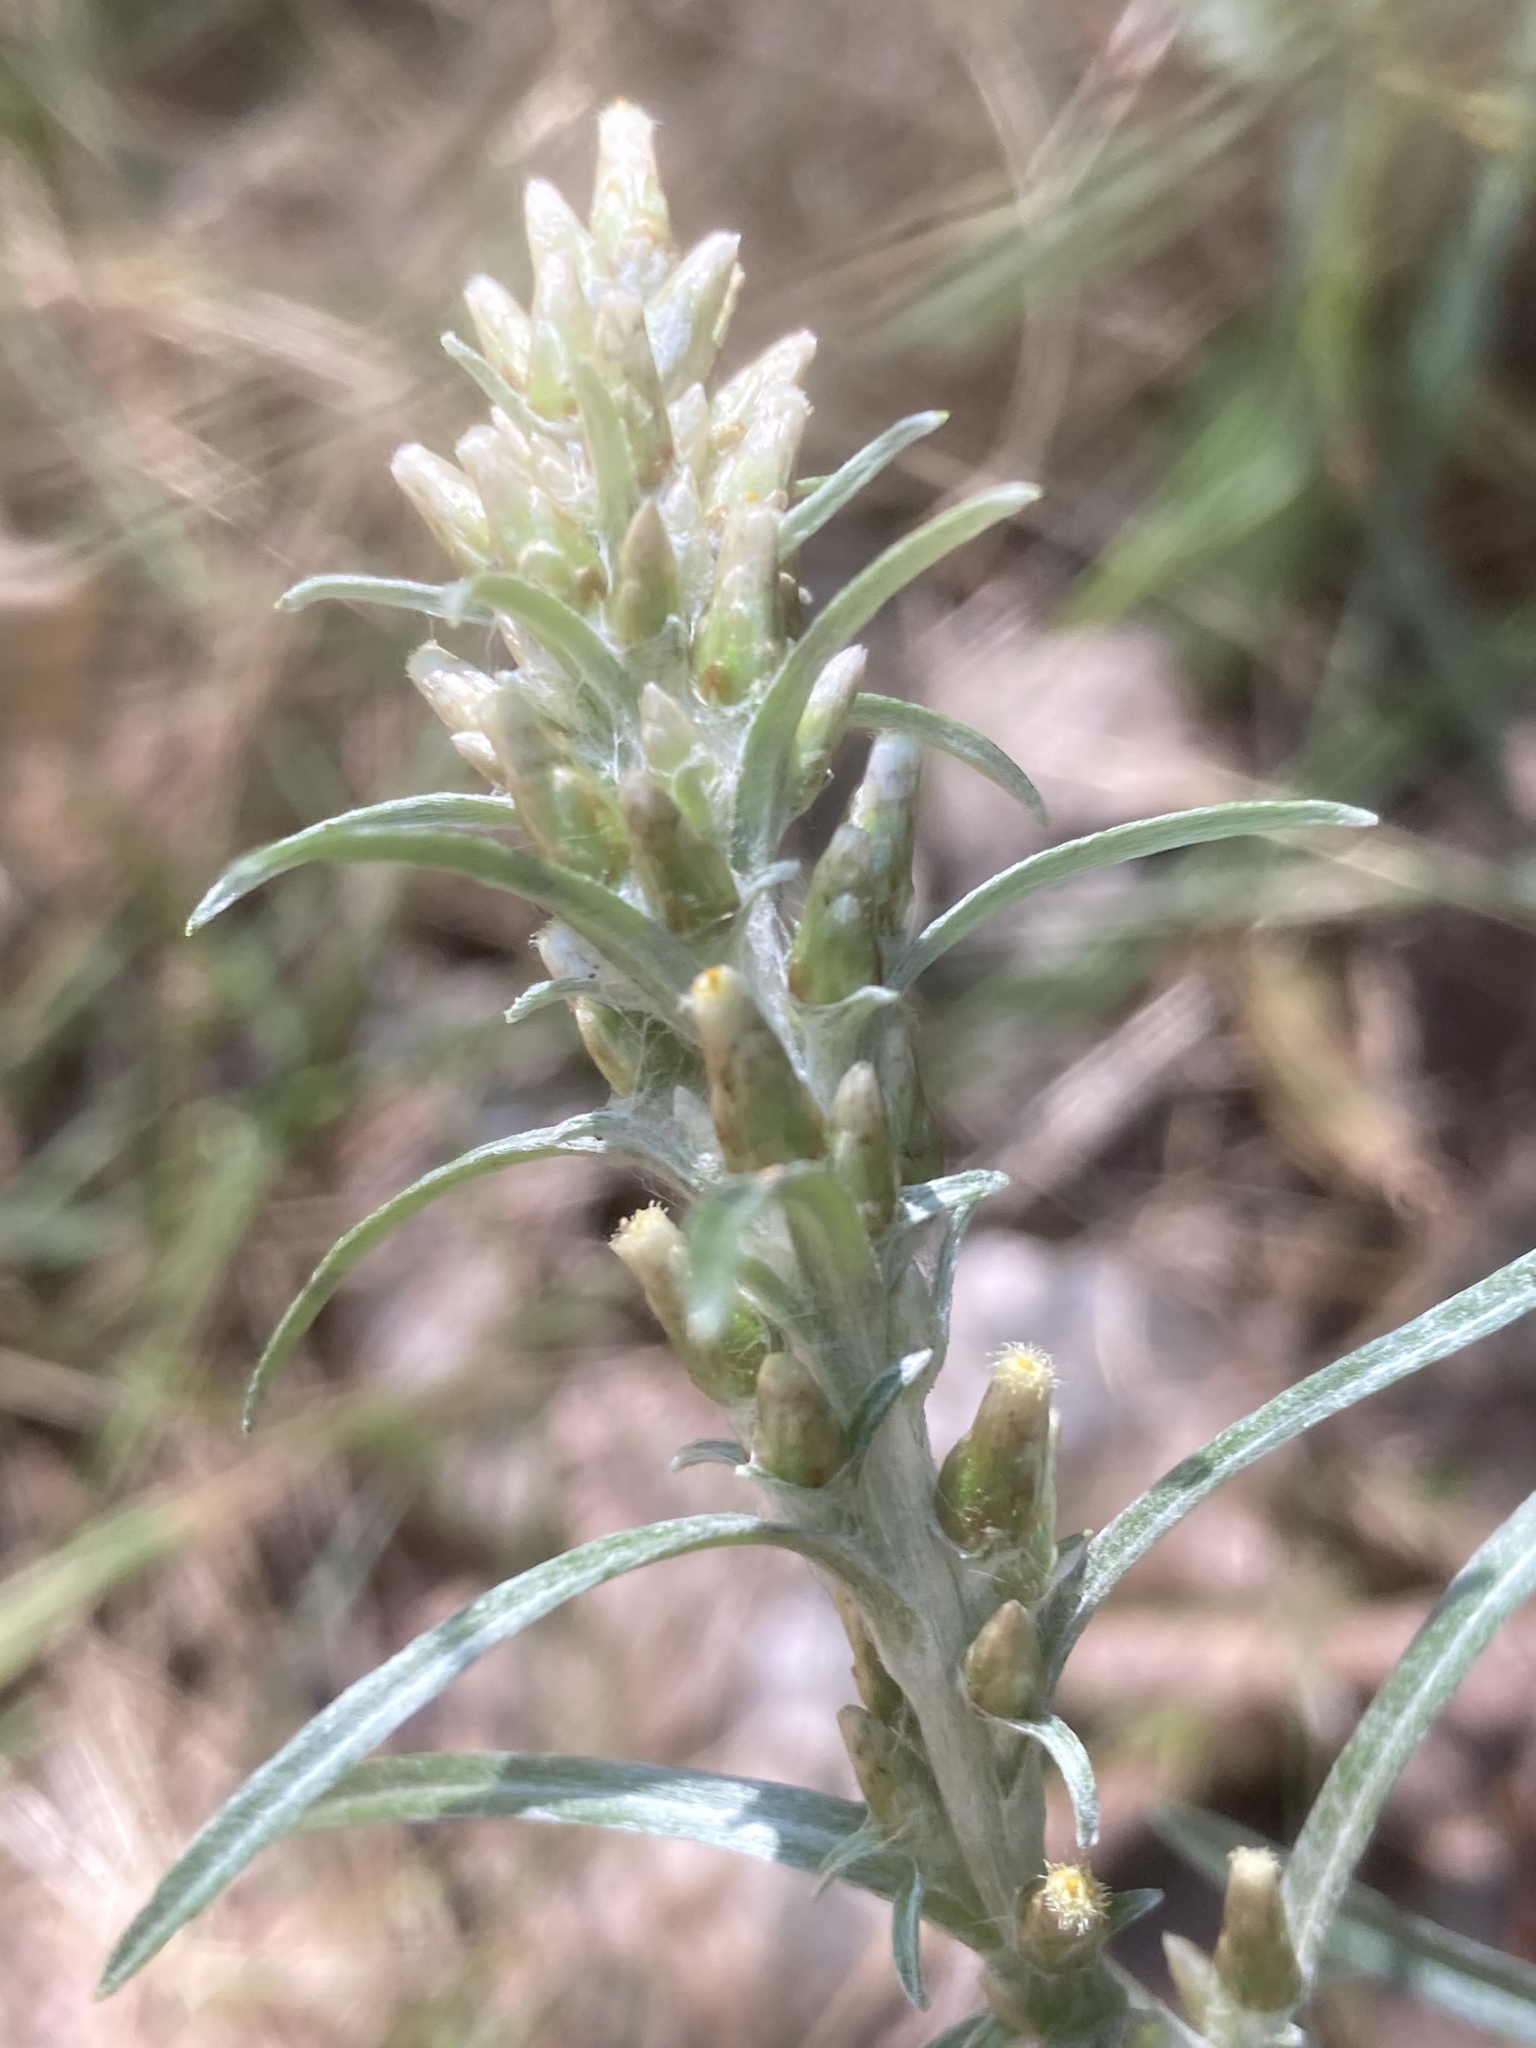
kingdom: Plantae
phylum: Tracheophyta
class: Magnoliopsida
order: Asterales
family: Asteraceae
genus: Omalotheca
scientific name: Omalotheca sylvatica
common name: Heath cudweed
